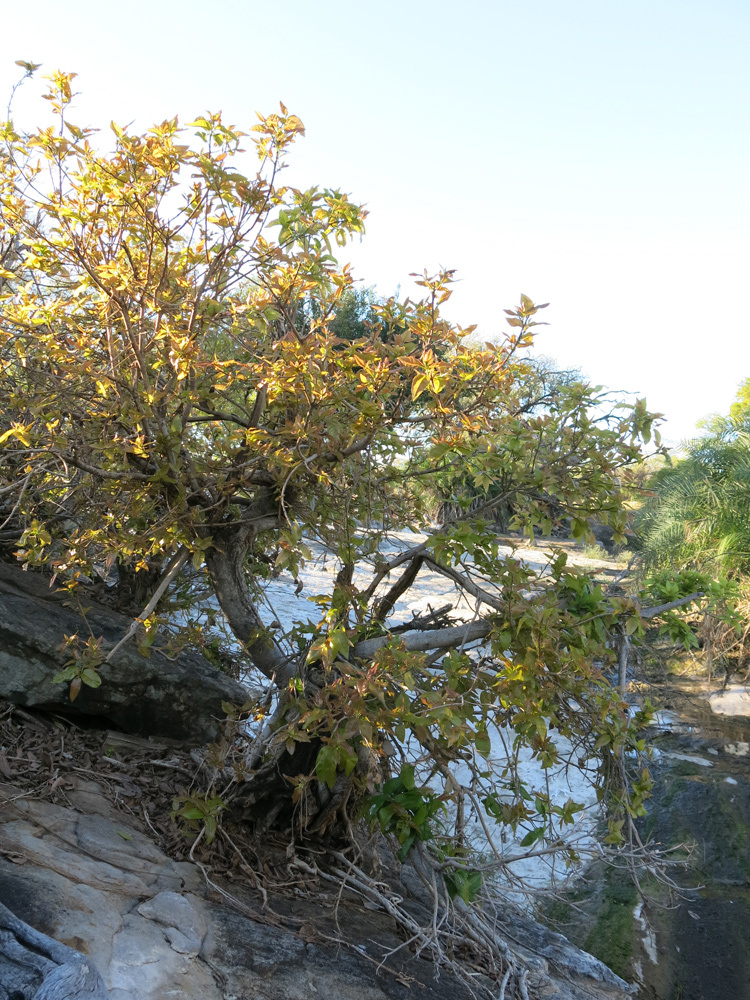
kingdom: Plantae
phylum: Tracheophyta
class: Magnoliopsida
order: Rosales
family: Moraceae
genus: Ficus
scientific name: Ficus ingens
